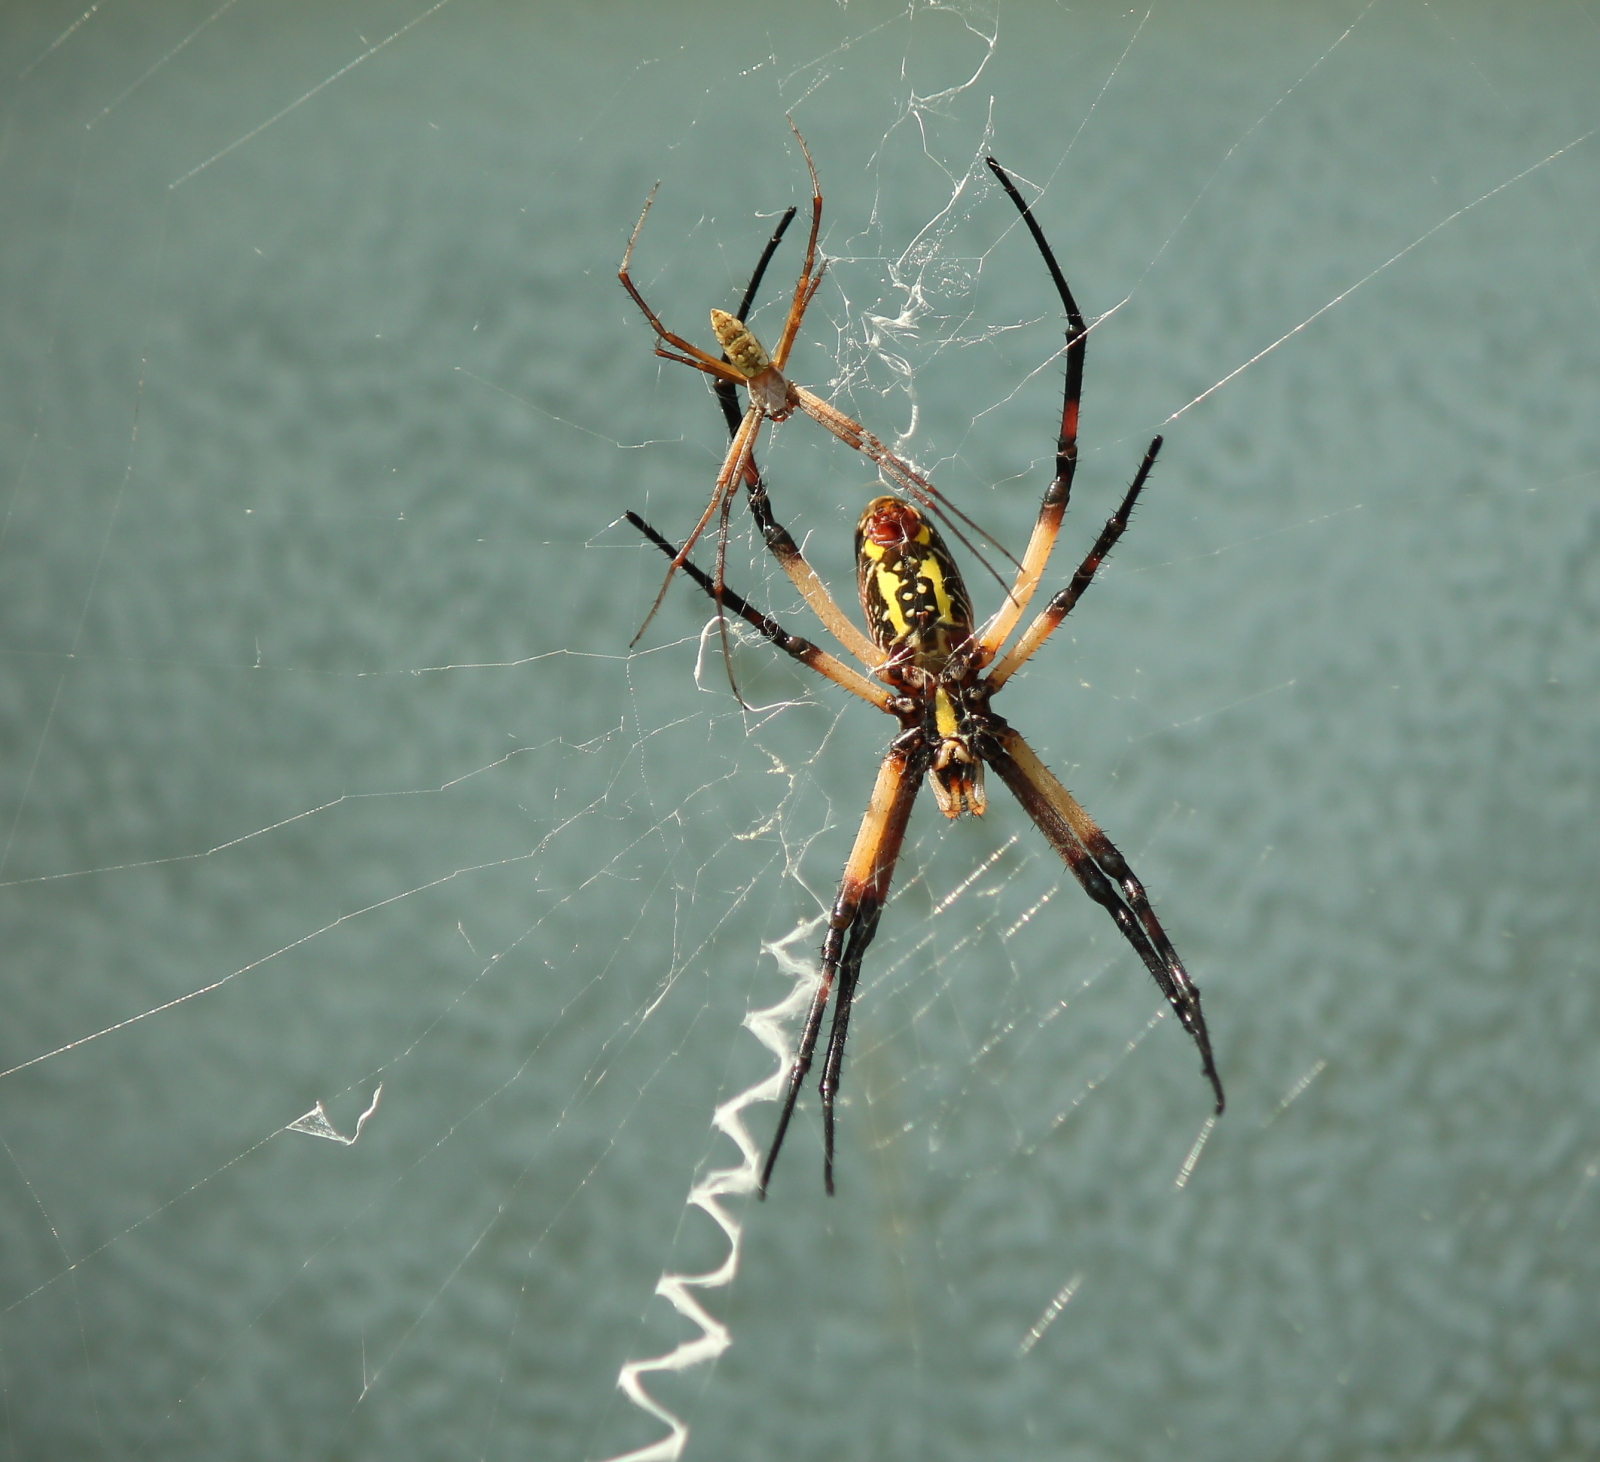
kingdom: Animalia
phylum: Arthropoda
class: Arachnida
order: Araneae
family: Araneidae
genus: Argiope
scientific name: Argiope aurantia
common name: Orb weavers
